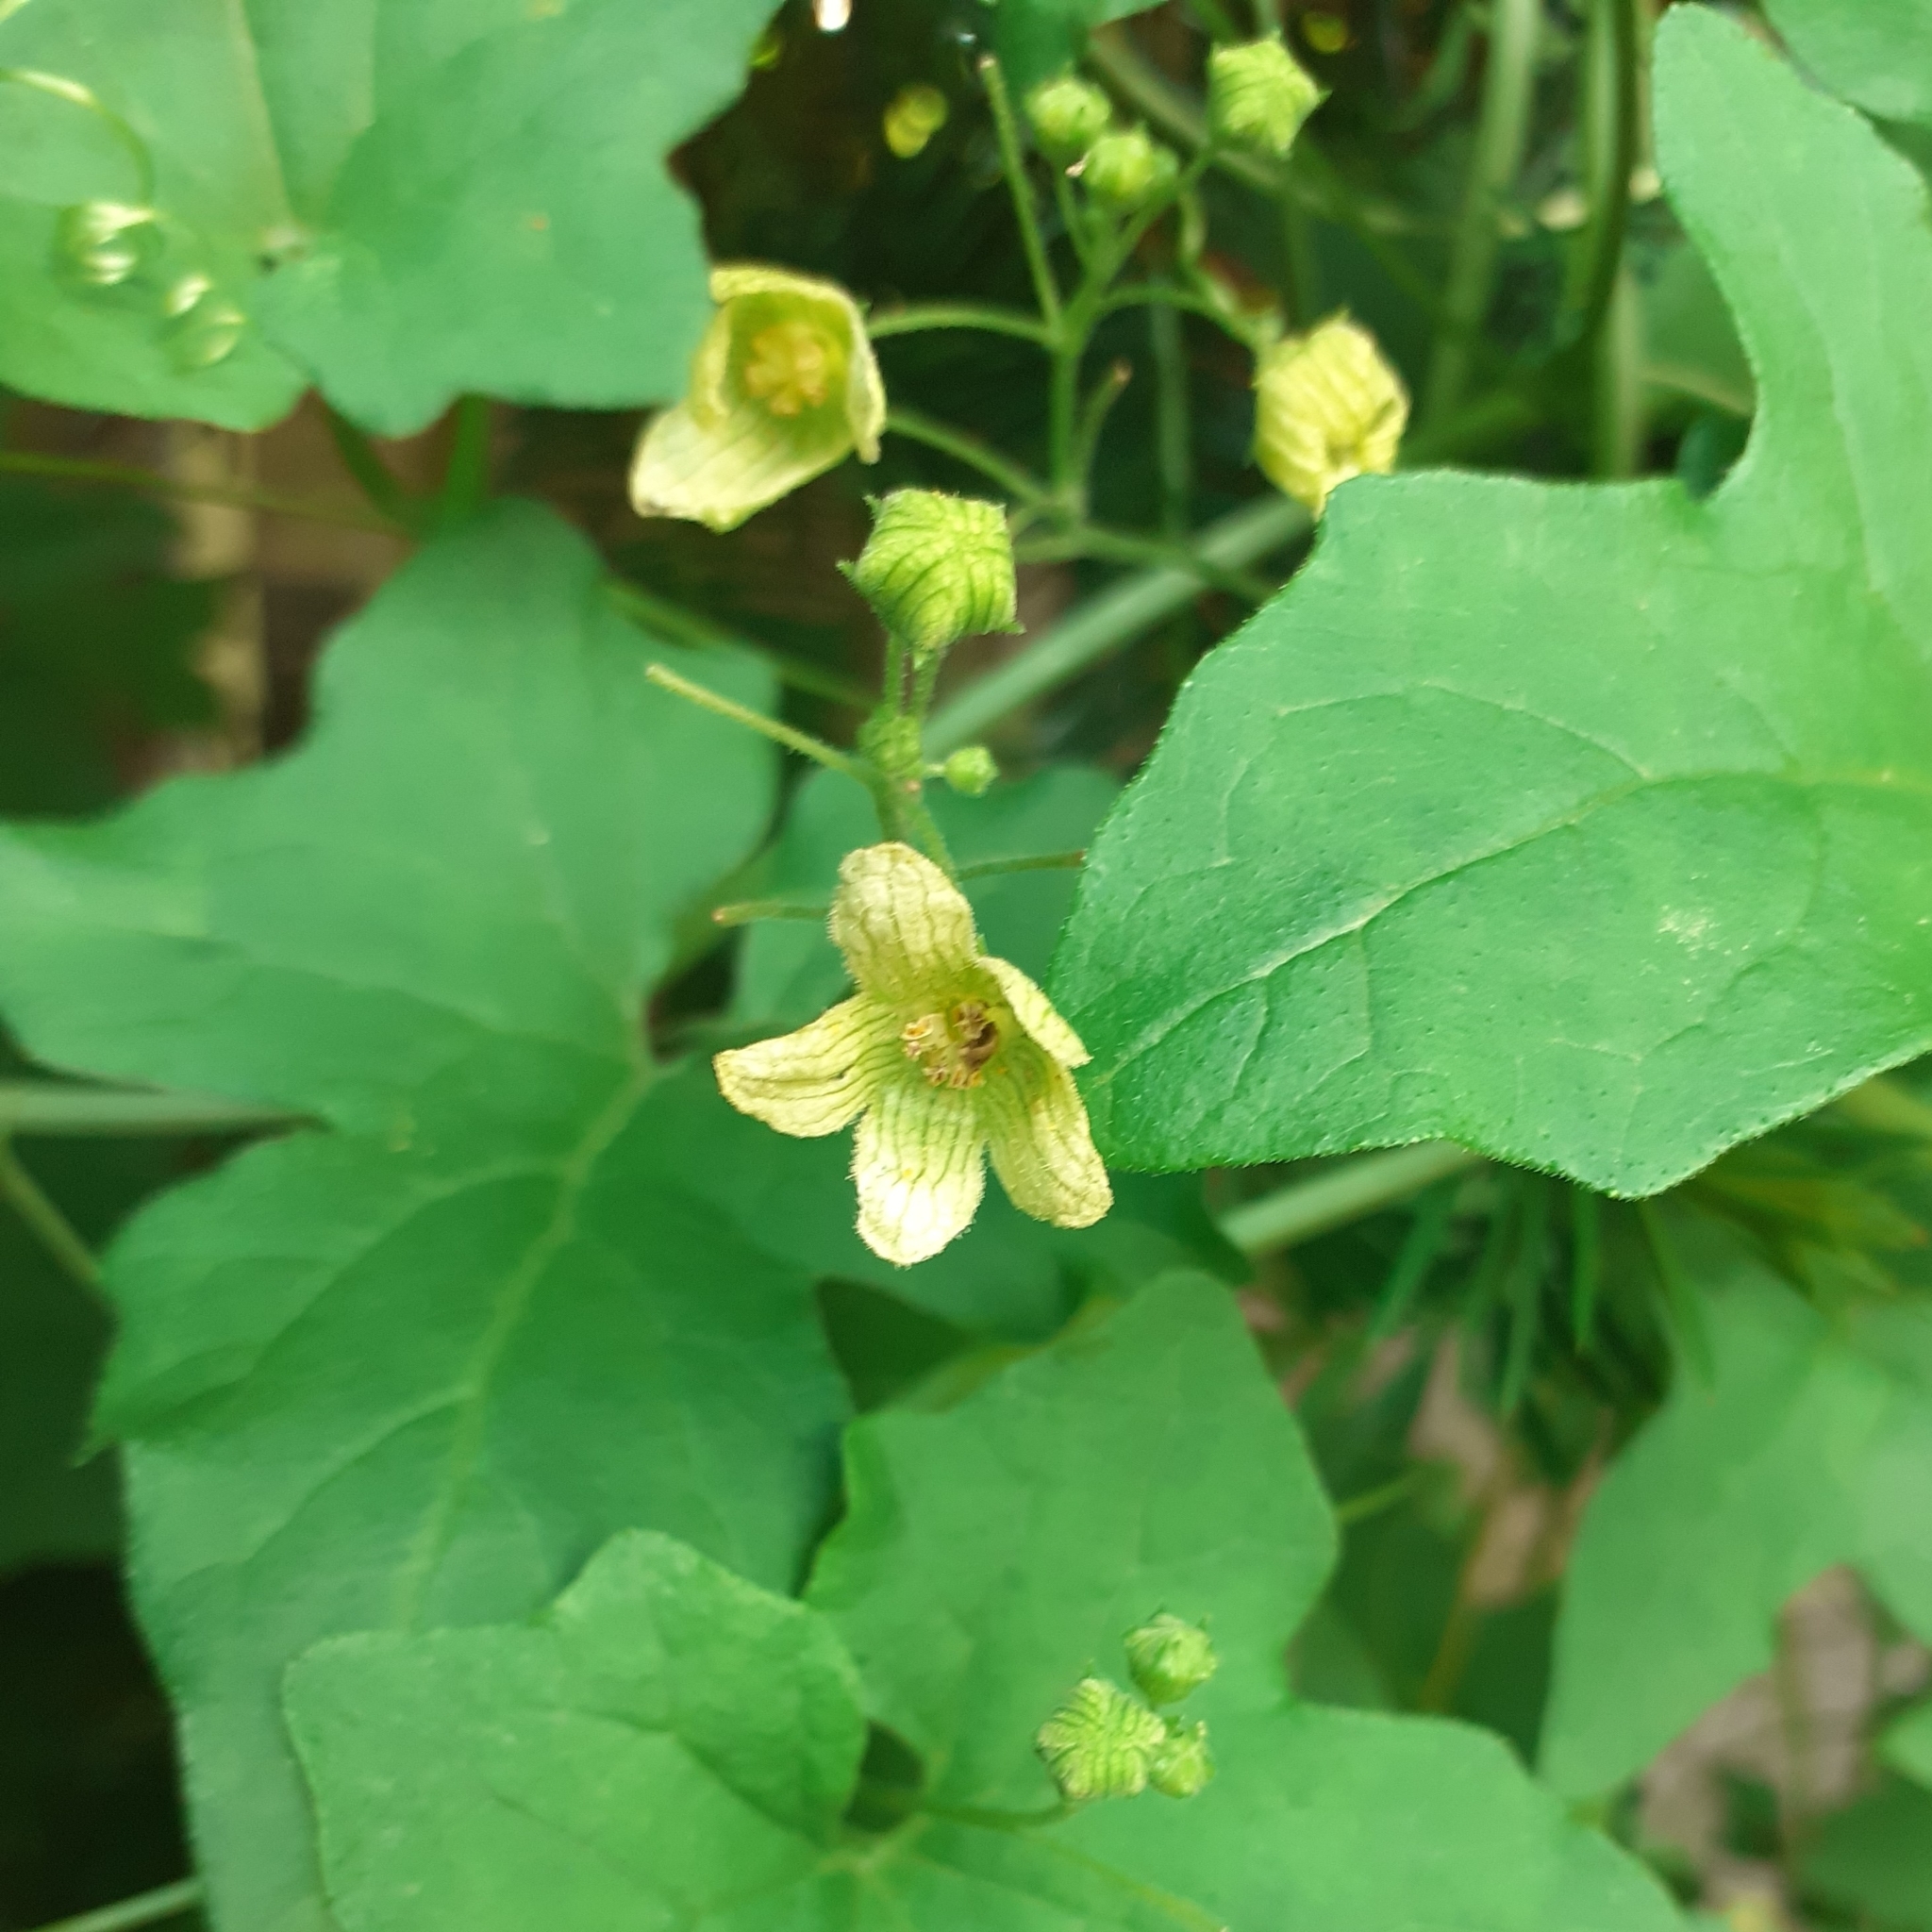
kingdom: Plantae
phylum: Tracheophyta
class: Magnoliopsida
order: Cucurbitales
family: Cucurbitaceae
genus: Bryonia
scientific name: Bryonia cretica
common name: Cretan bryony
